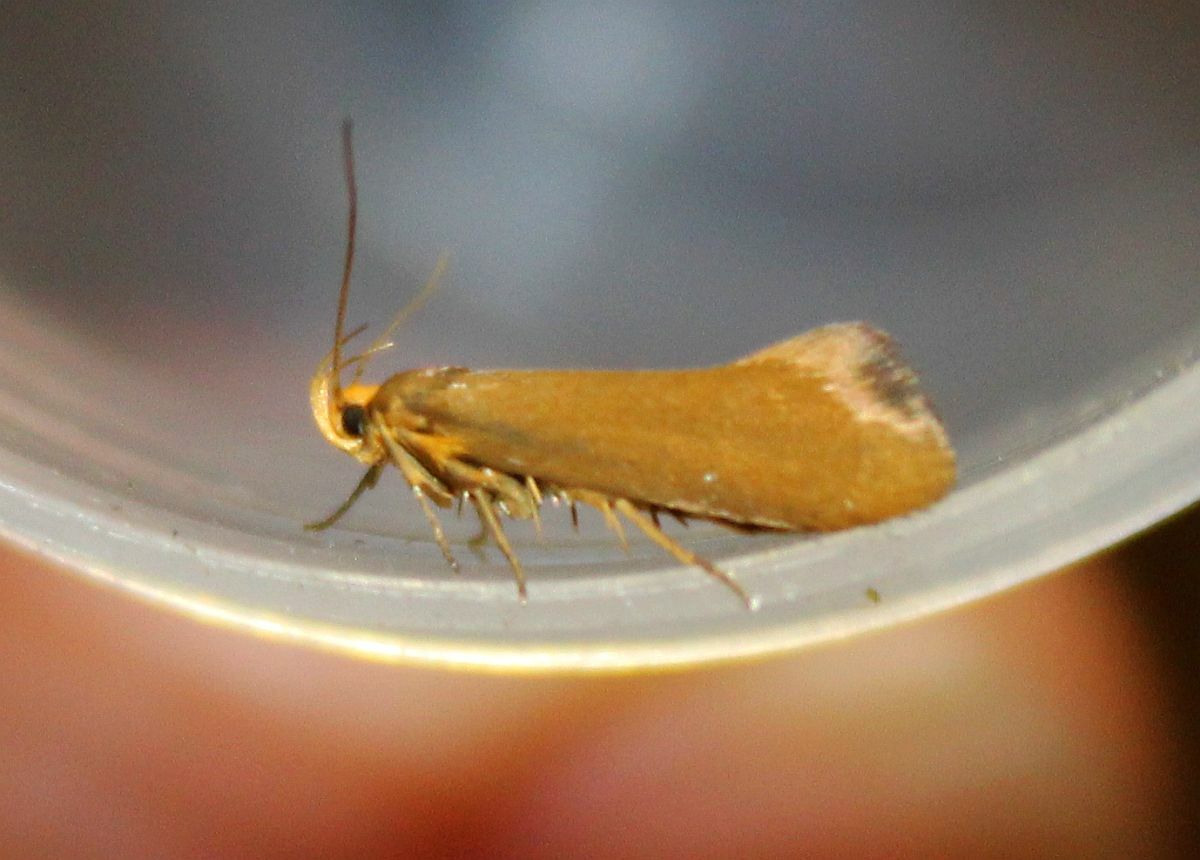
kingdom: Animalia
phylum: Arthropoda
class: Insecta
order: Lepidoptera
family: Oecophoridae
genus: Borkhausenia
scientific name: Borkhausenia Crassa unitella
